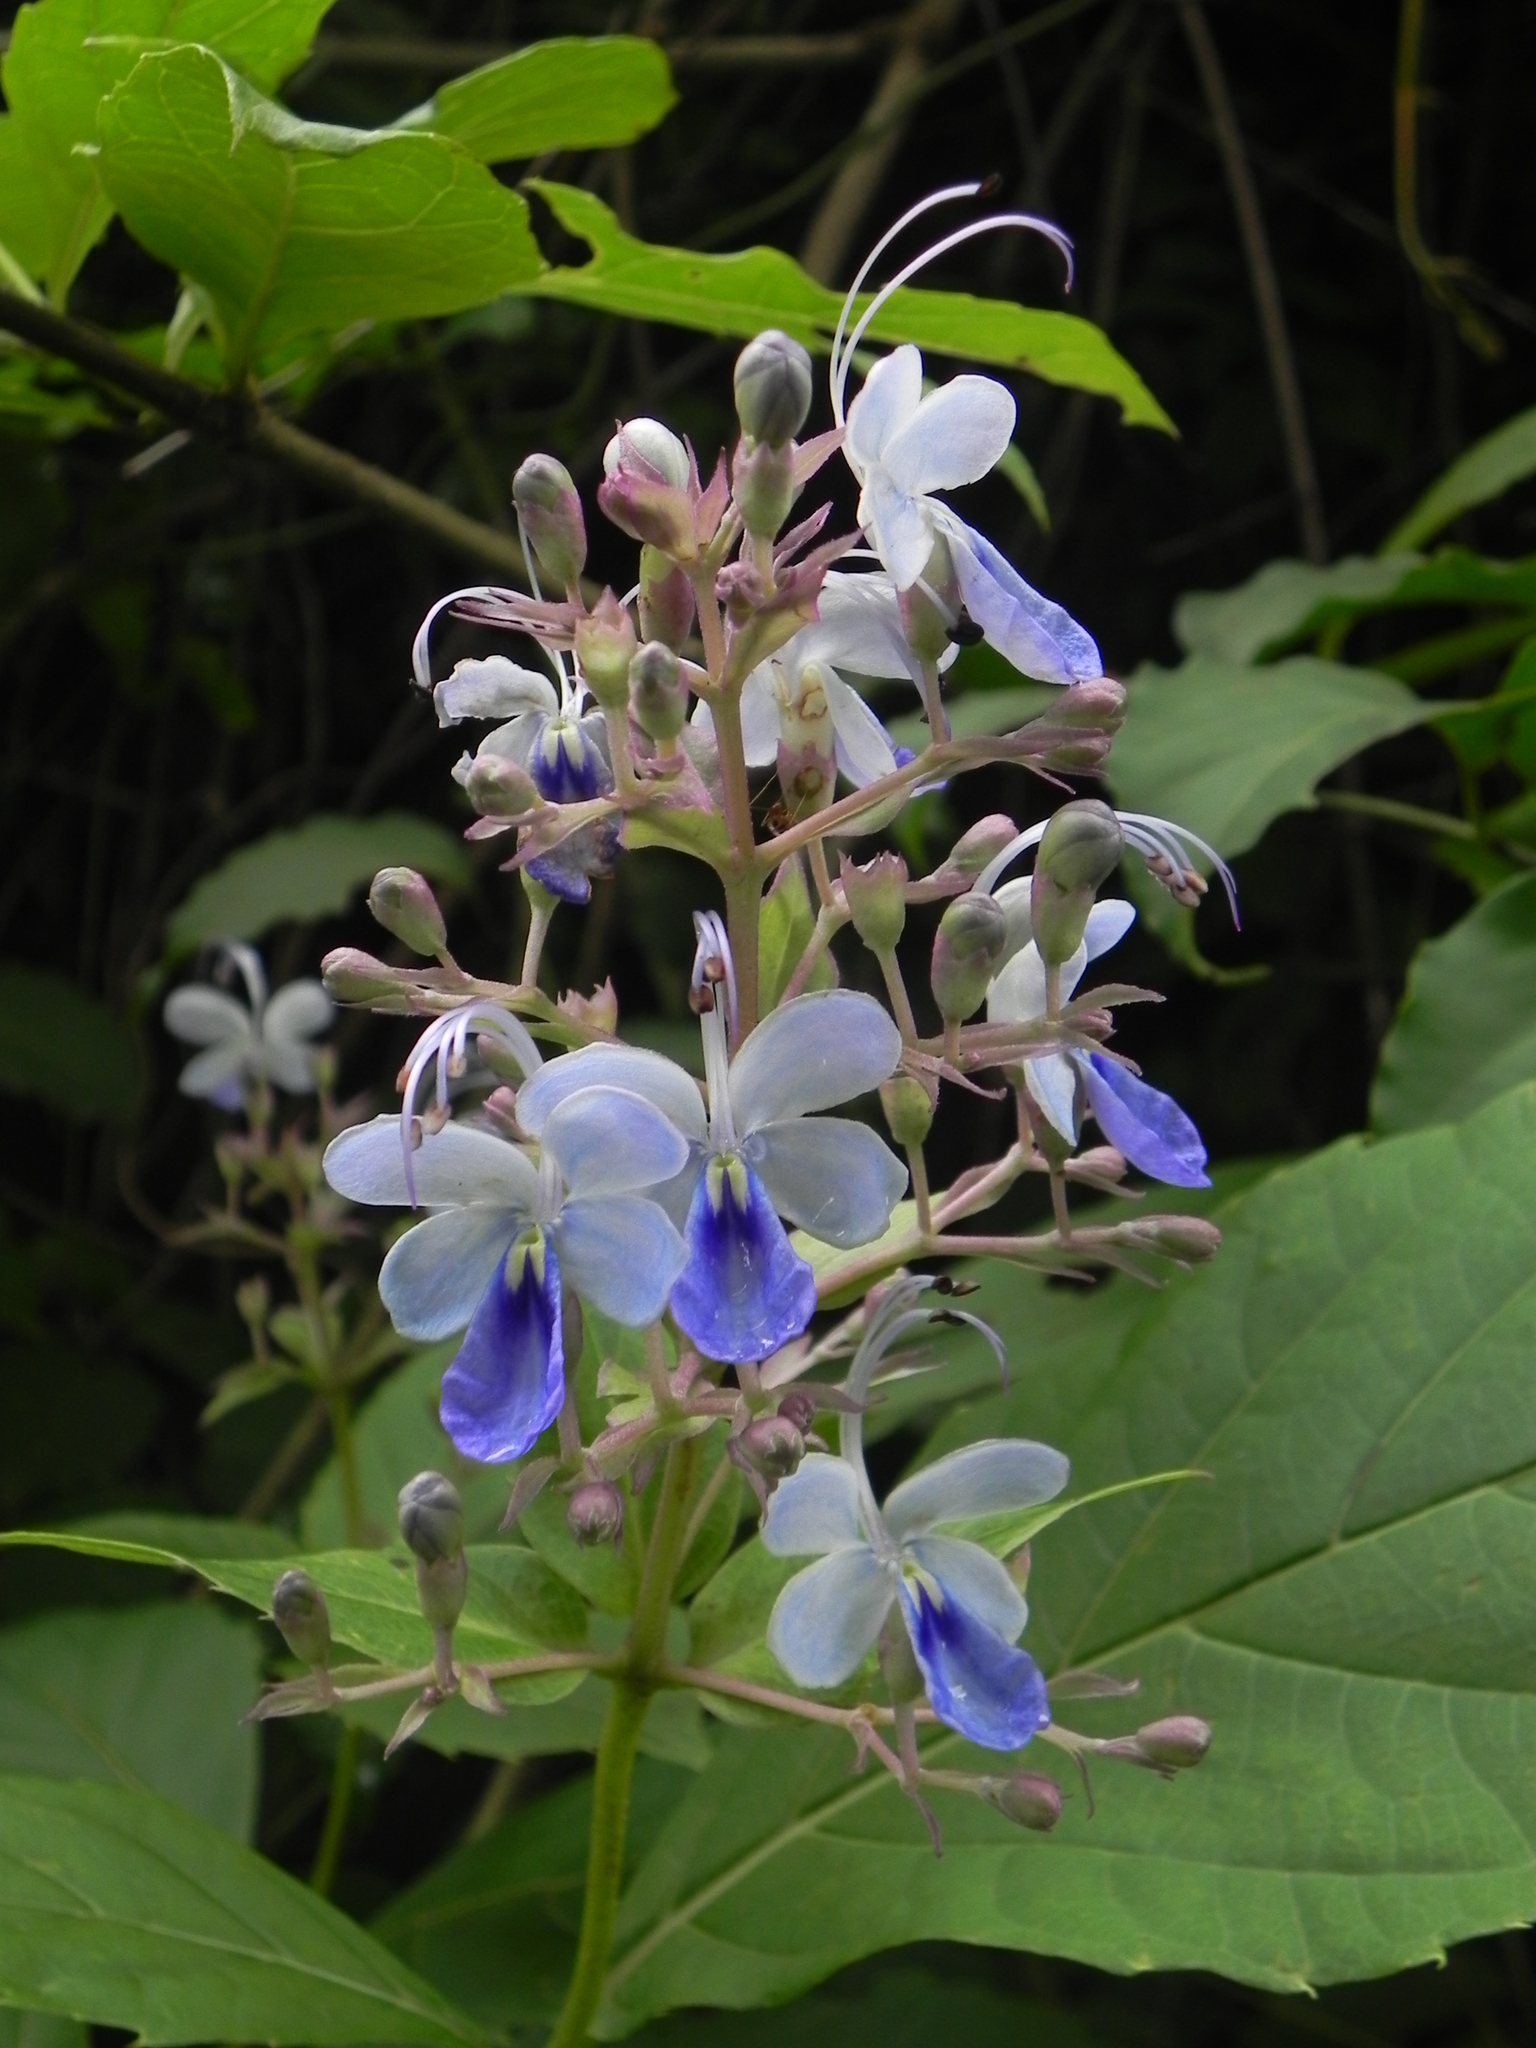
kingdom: Plantae
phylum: Tracheophyta
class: Magnoliopsida
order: Lamiales
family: Lamiaceae
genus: Rotheca
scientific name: Rotheca serrata
